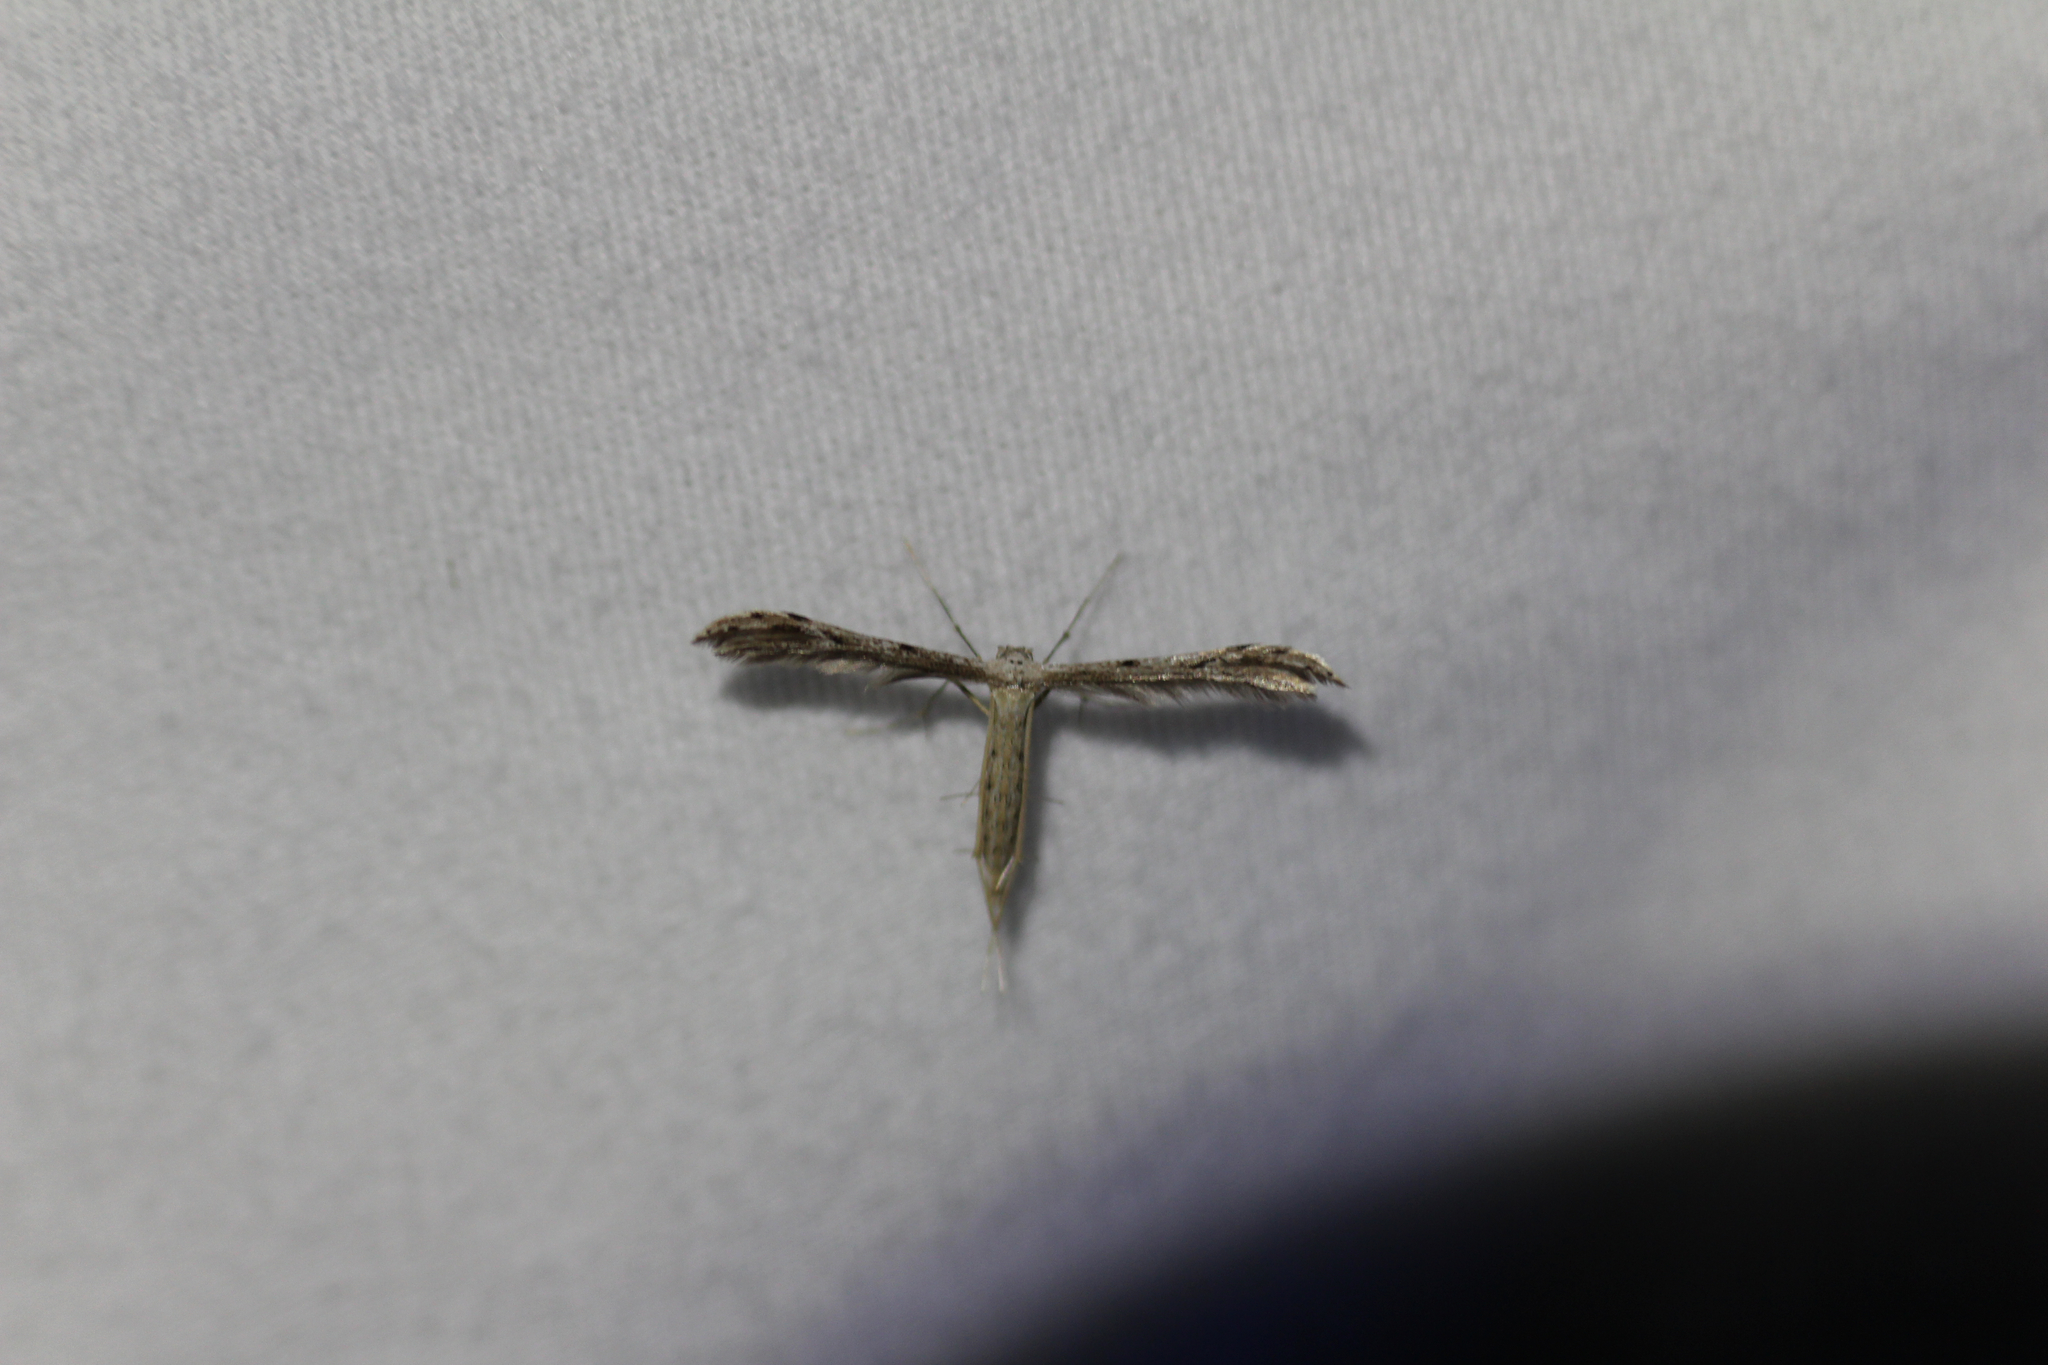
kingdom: Animalia
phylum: Arthropoda
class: Insecta
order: Lepidoptera
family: Pterophoridae
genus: Pselnophorus
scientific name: Pselnophorus belfragei
